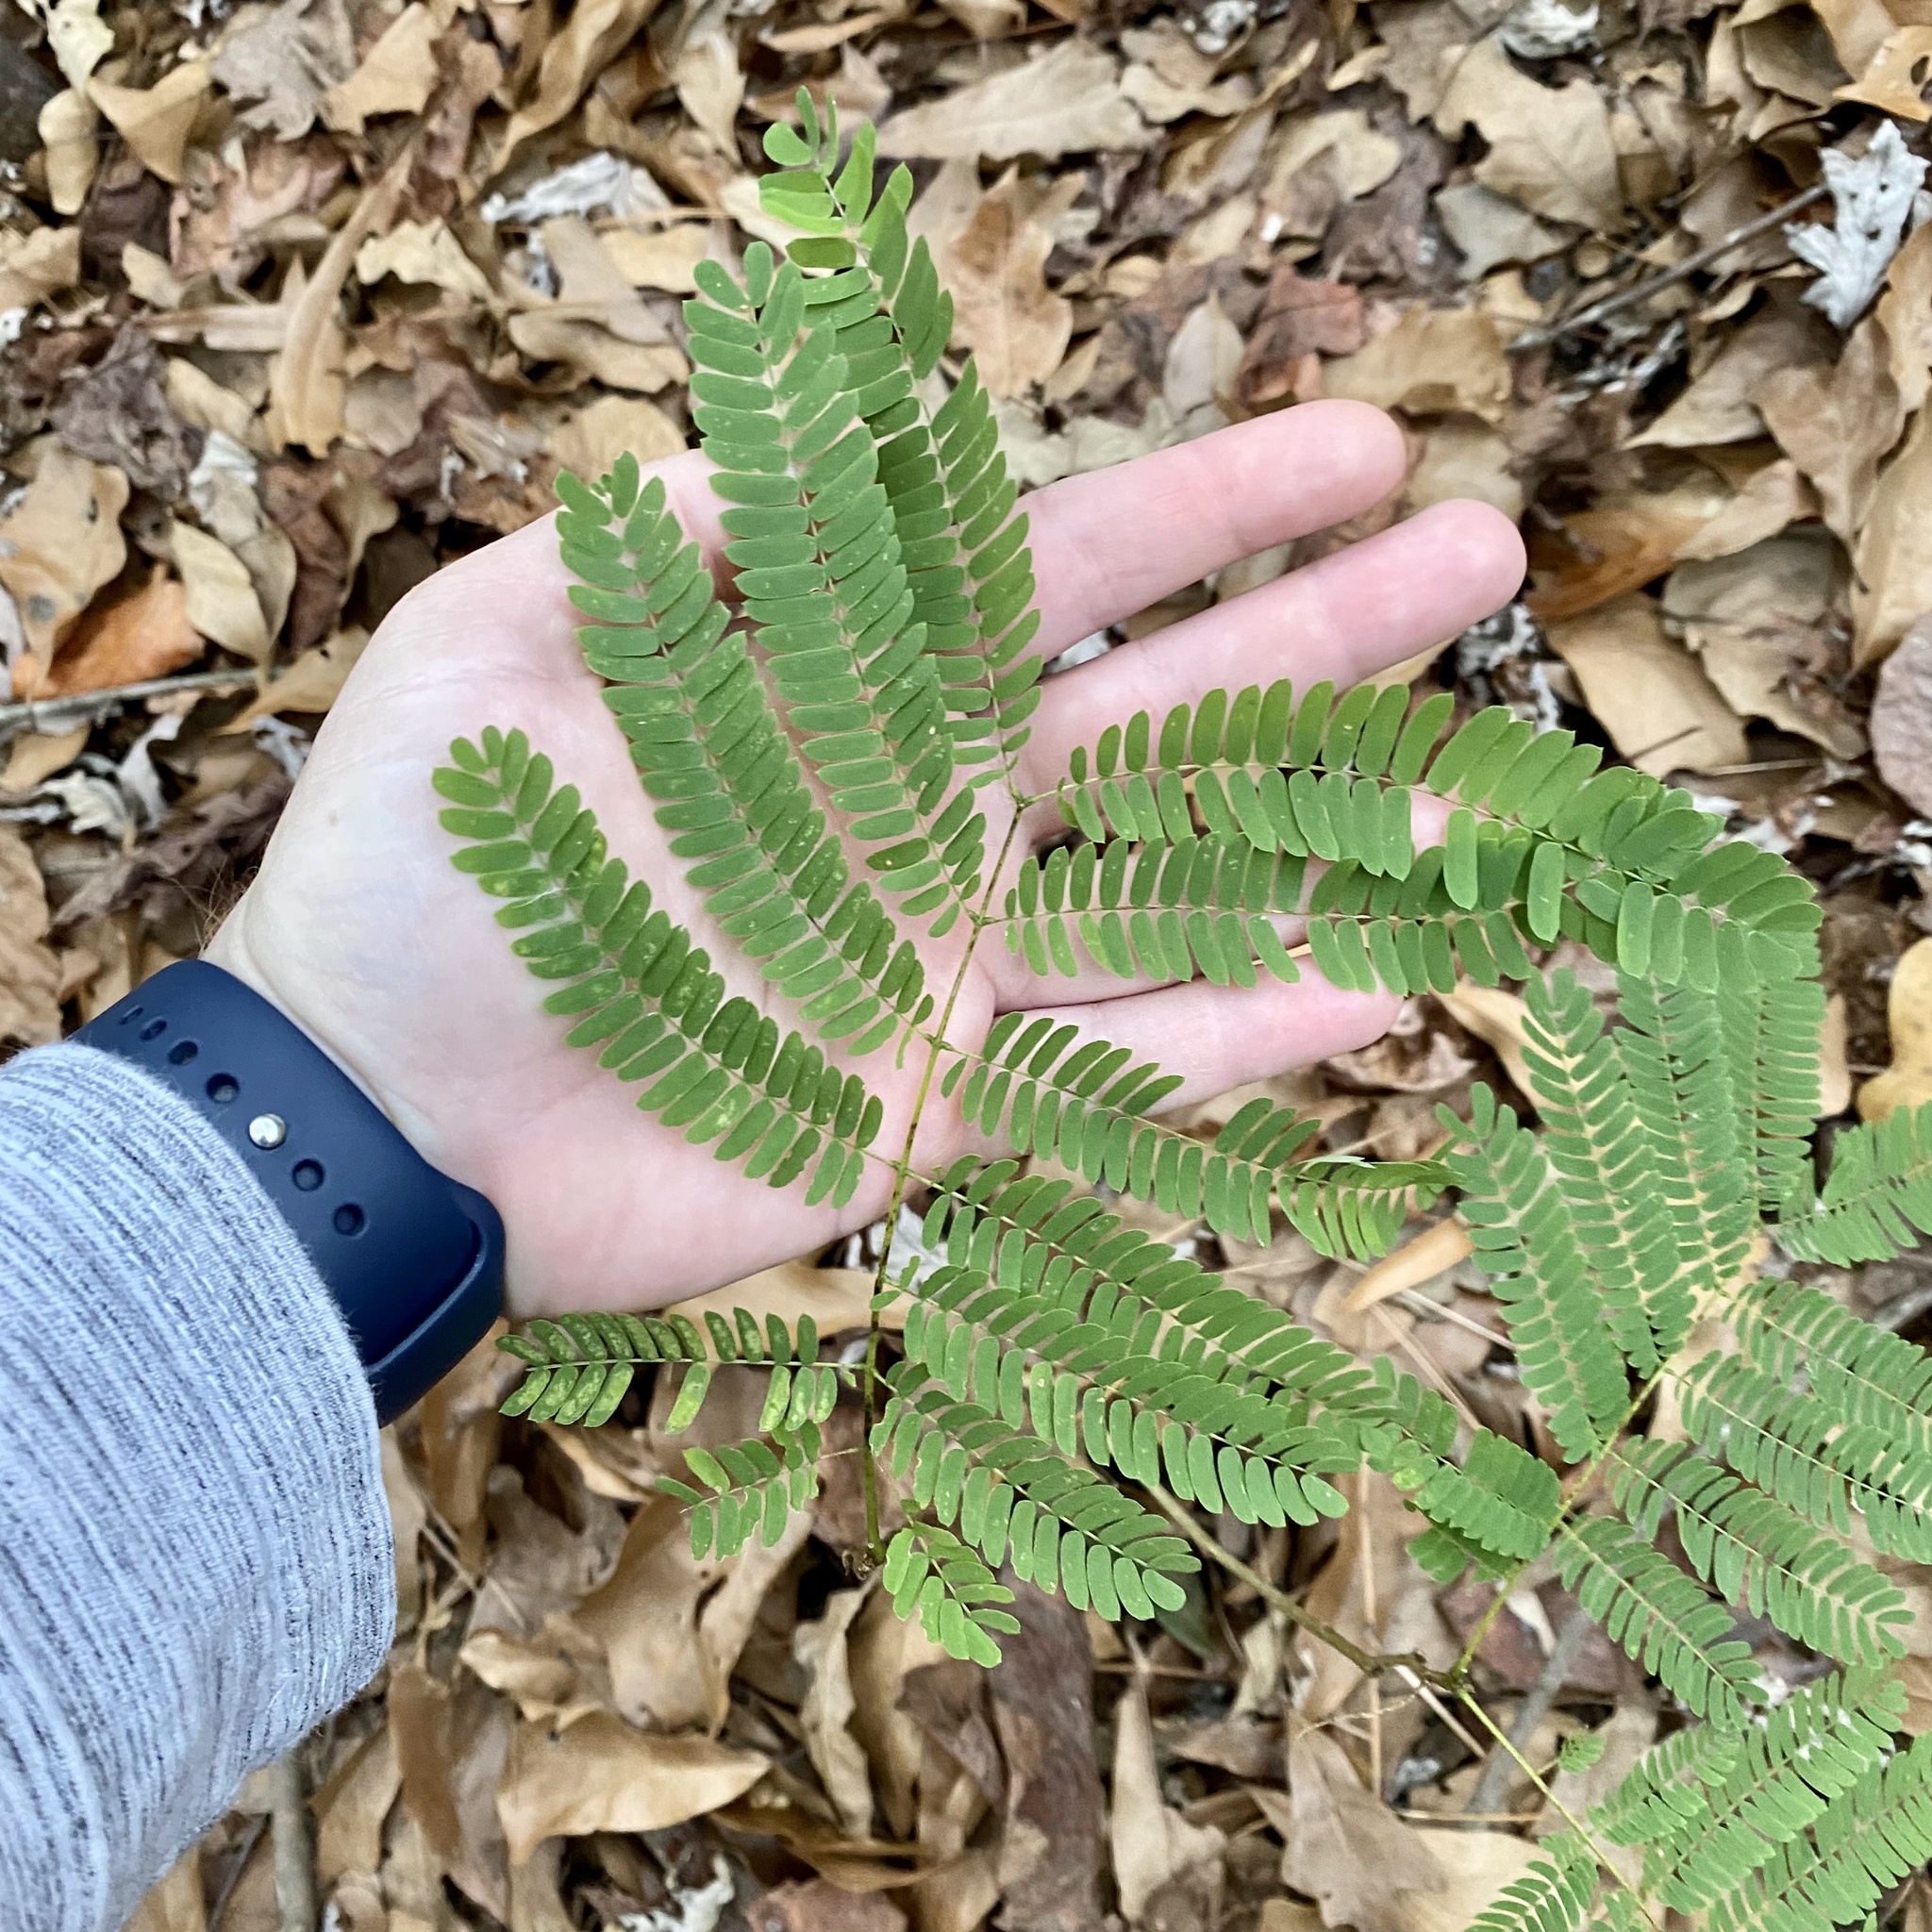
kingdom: Plantae
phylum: Tracheophyta
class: Magnoliopsida
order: Fabales
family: Fabaceae
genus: Albizia
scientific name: Albizia julibrissin
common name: Silktree
